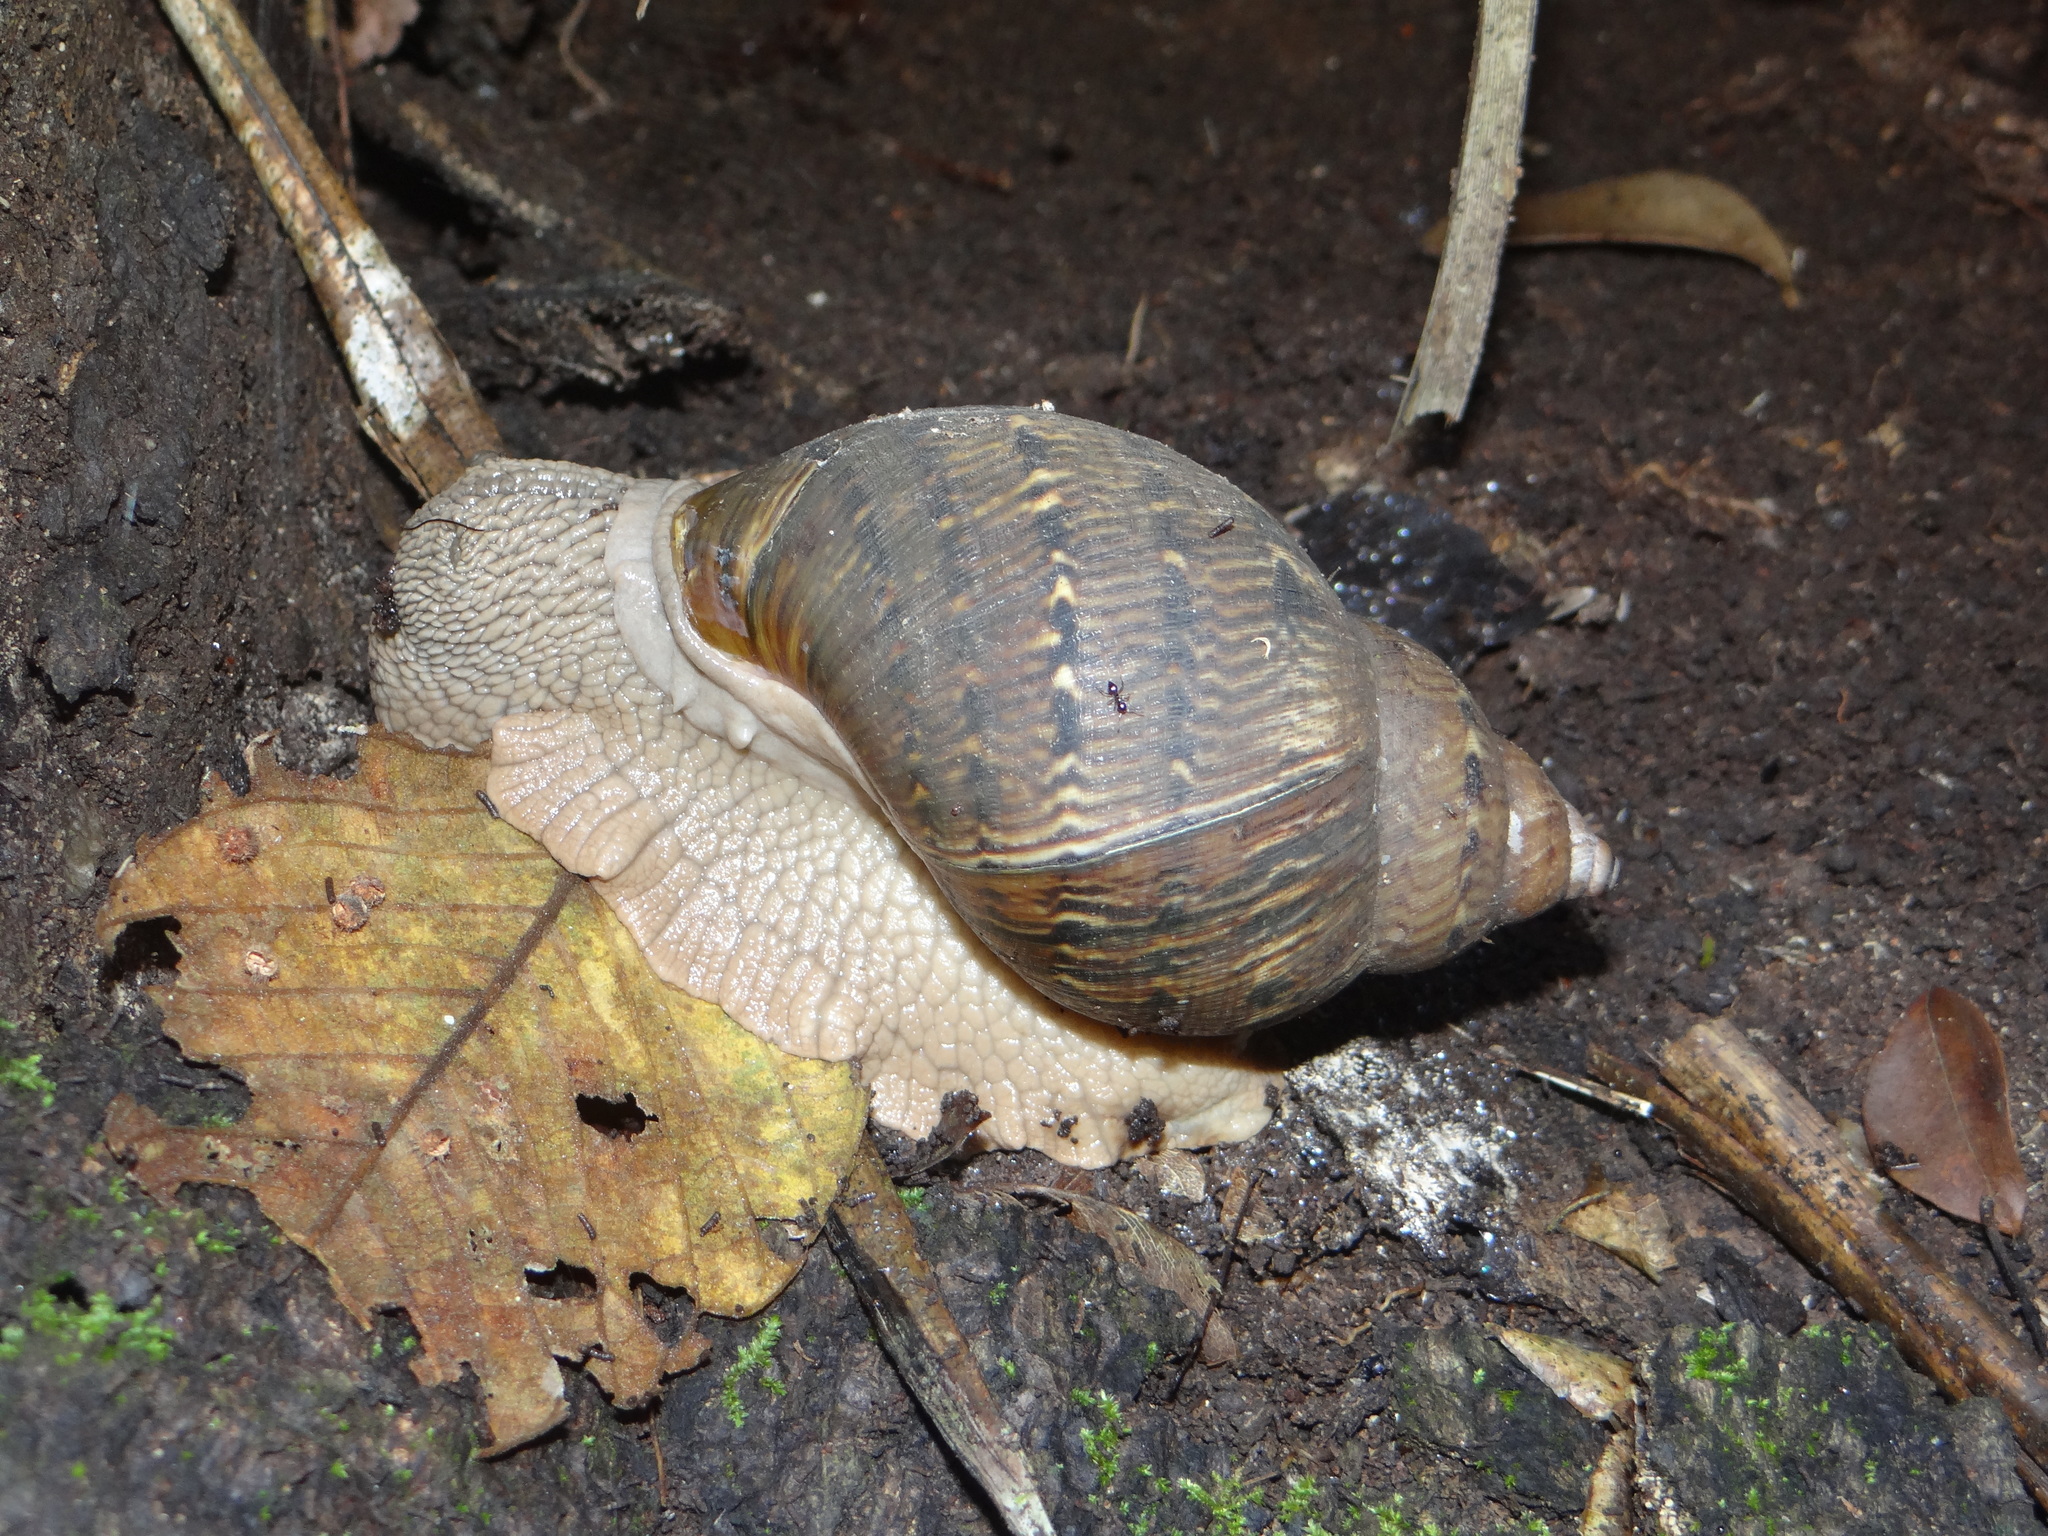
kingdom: Animalia
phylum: Mollusca
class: Gastropoda
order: Stylommatophora
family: Orthalicidae
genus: Sultana
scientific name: Sultana sultana
